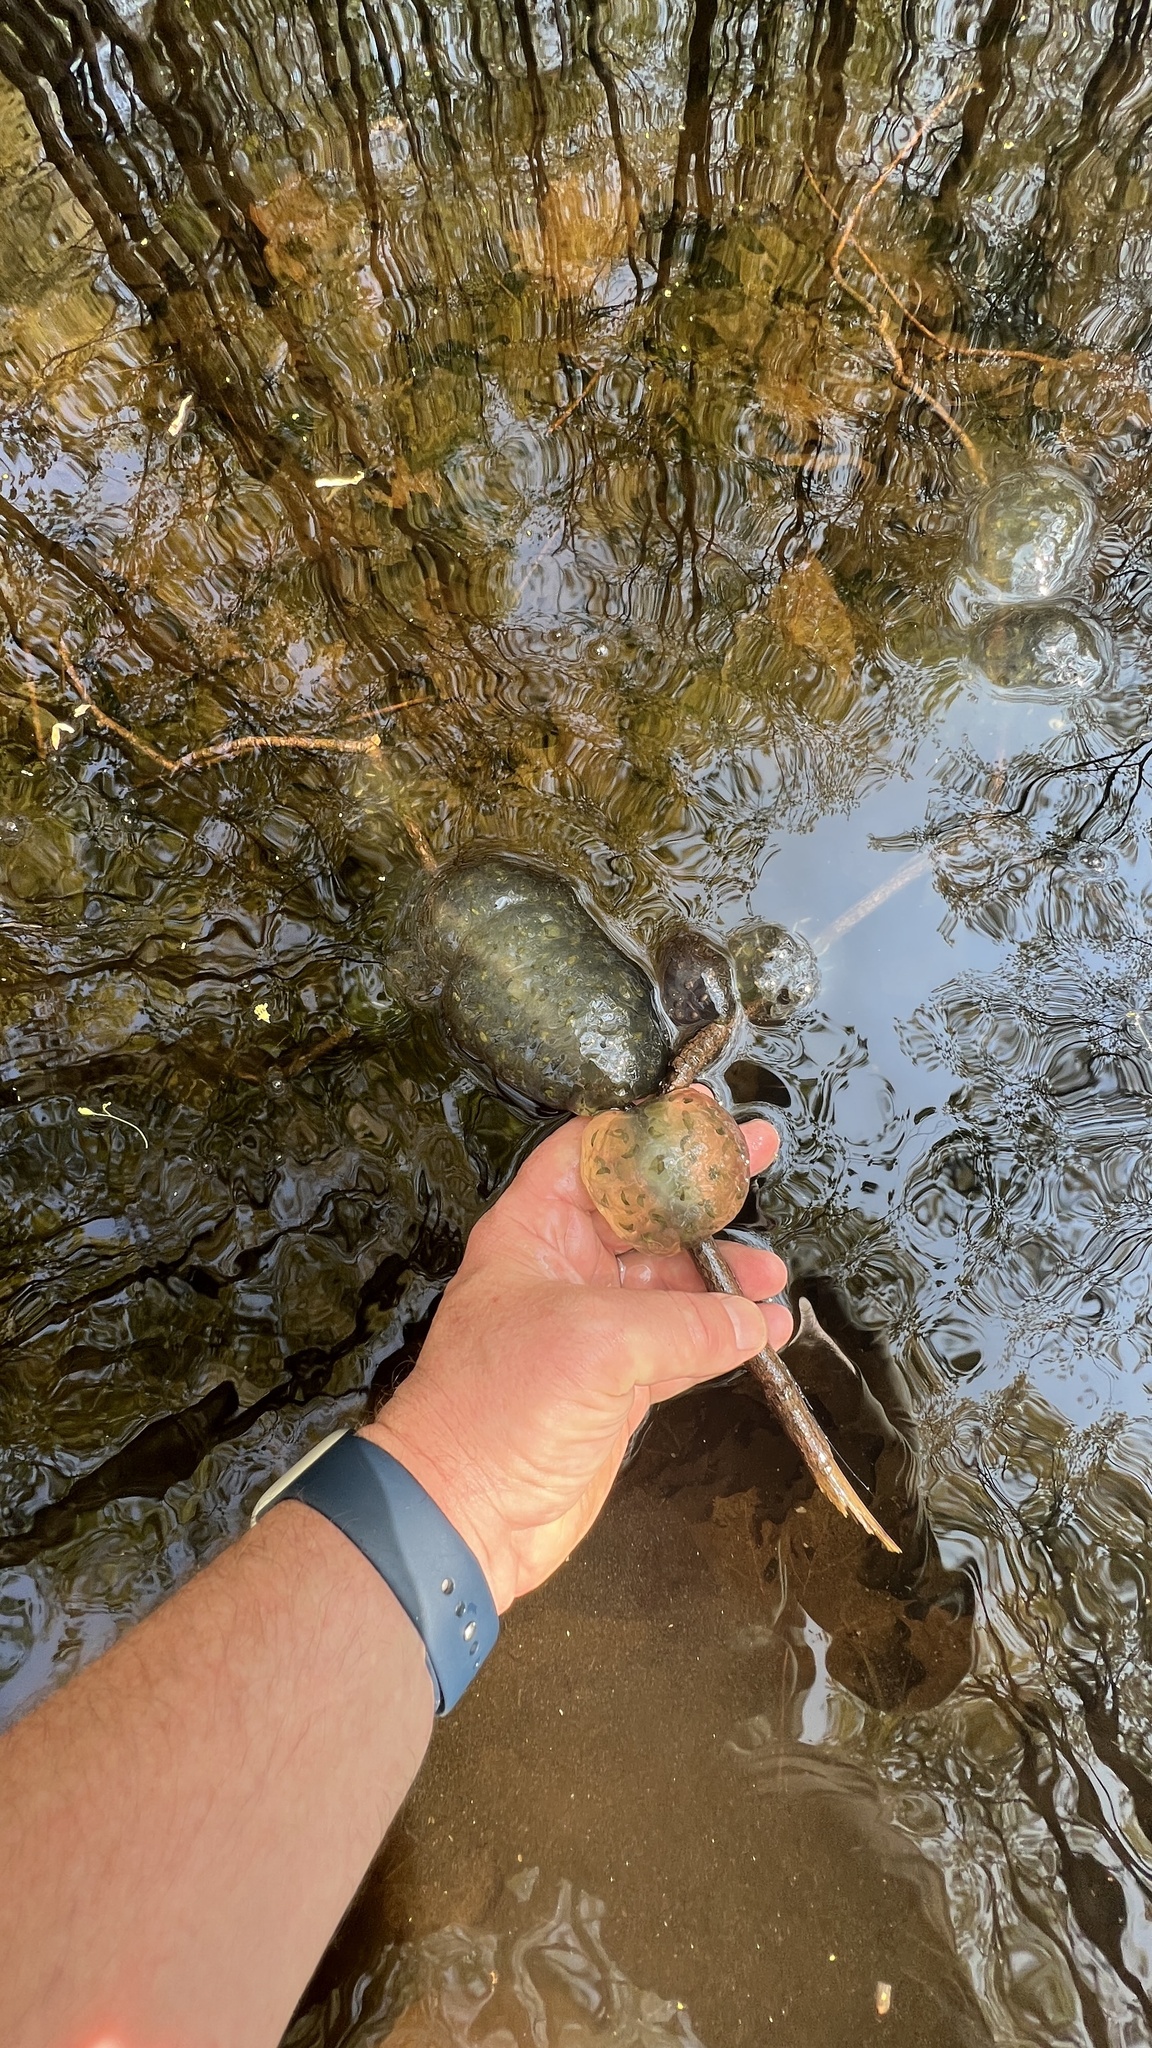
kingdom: Animalia
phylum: Chordata
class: Amphibia
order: Caudata
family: Ambystomatidae
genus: Ambystoma
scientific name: Ambystoma maculatum
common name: Spotted salamander
